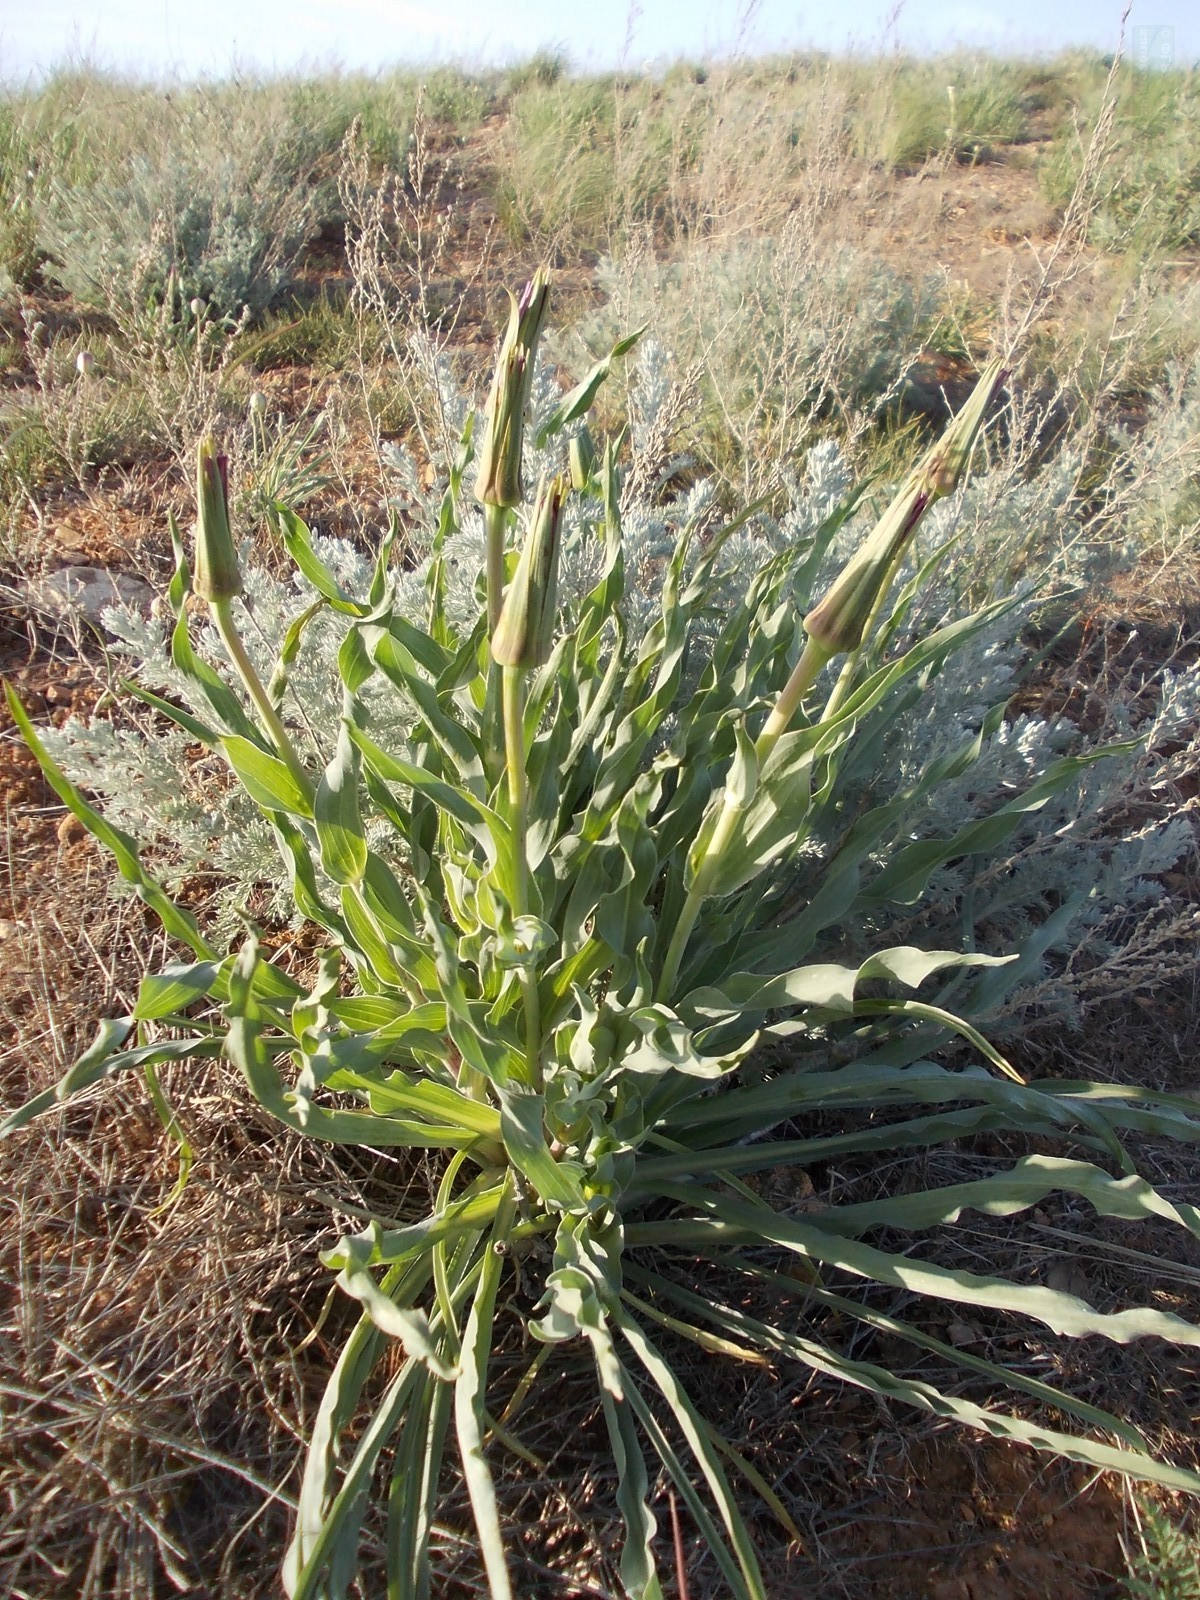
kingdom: Plantae
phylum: Tracheophyta
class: Magnoliopsida
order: Asterales
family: Asteraceae
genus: Tragopogon
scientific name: Tragopogon marginifolius
